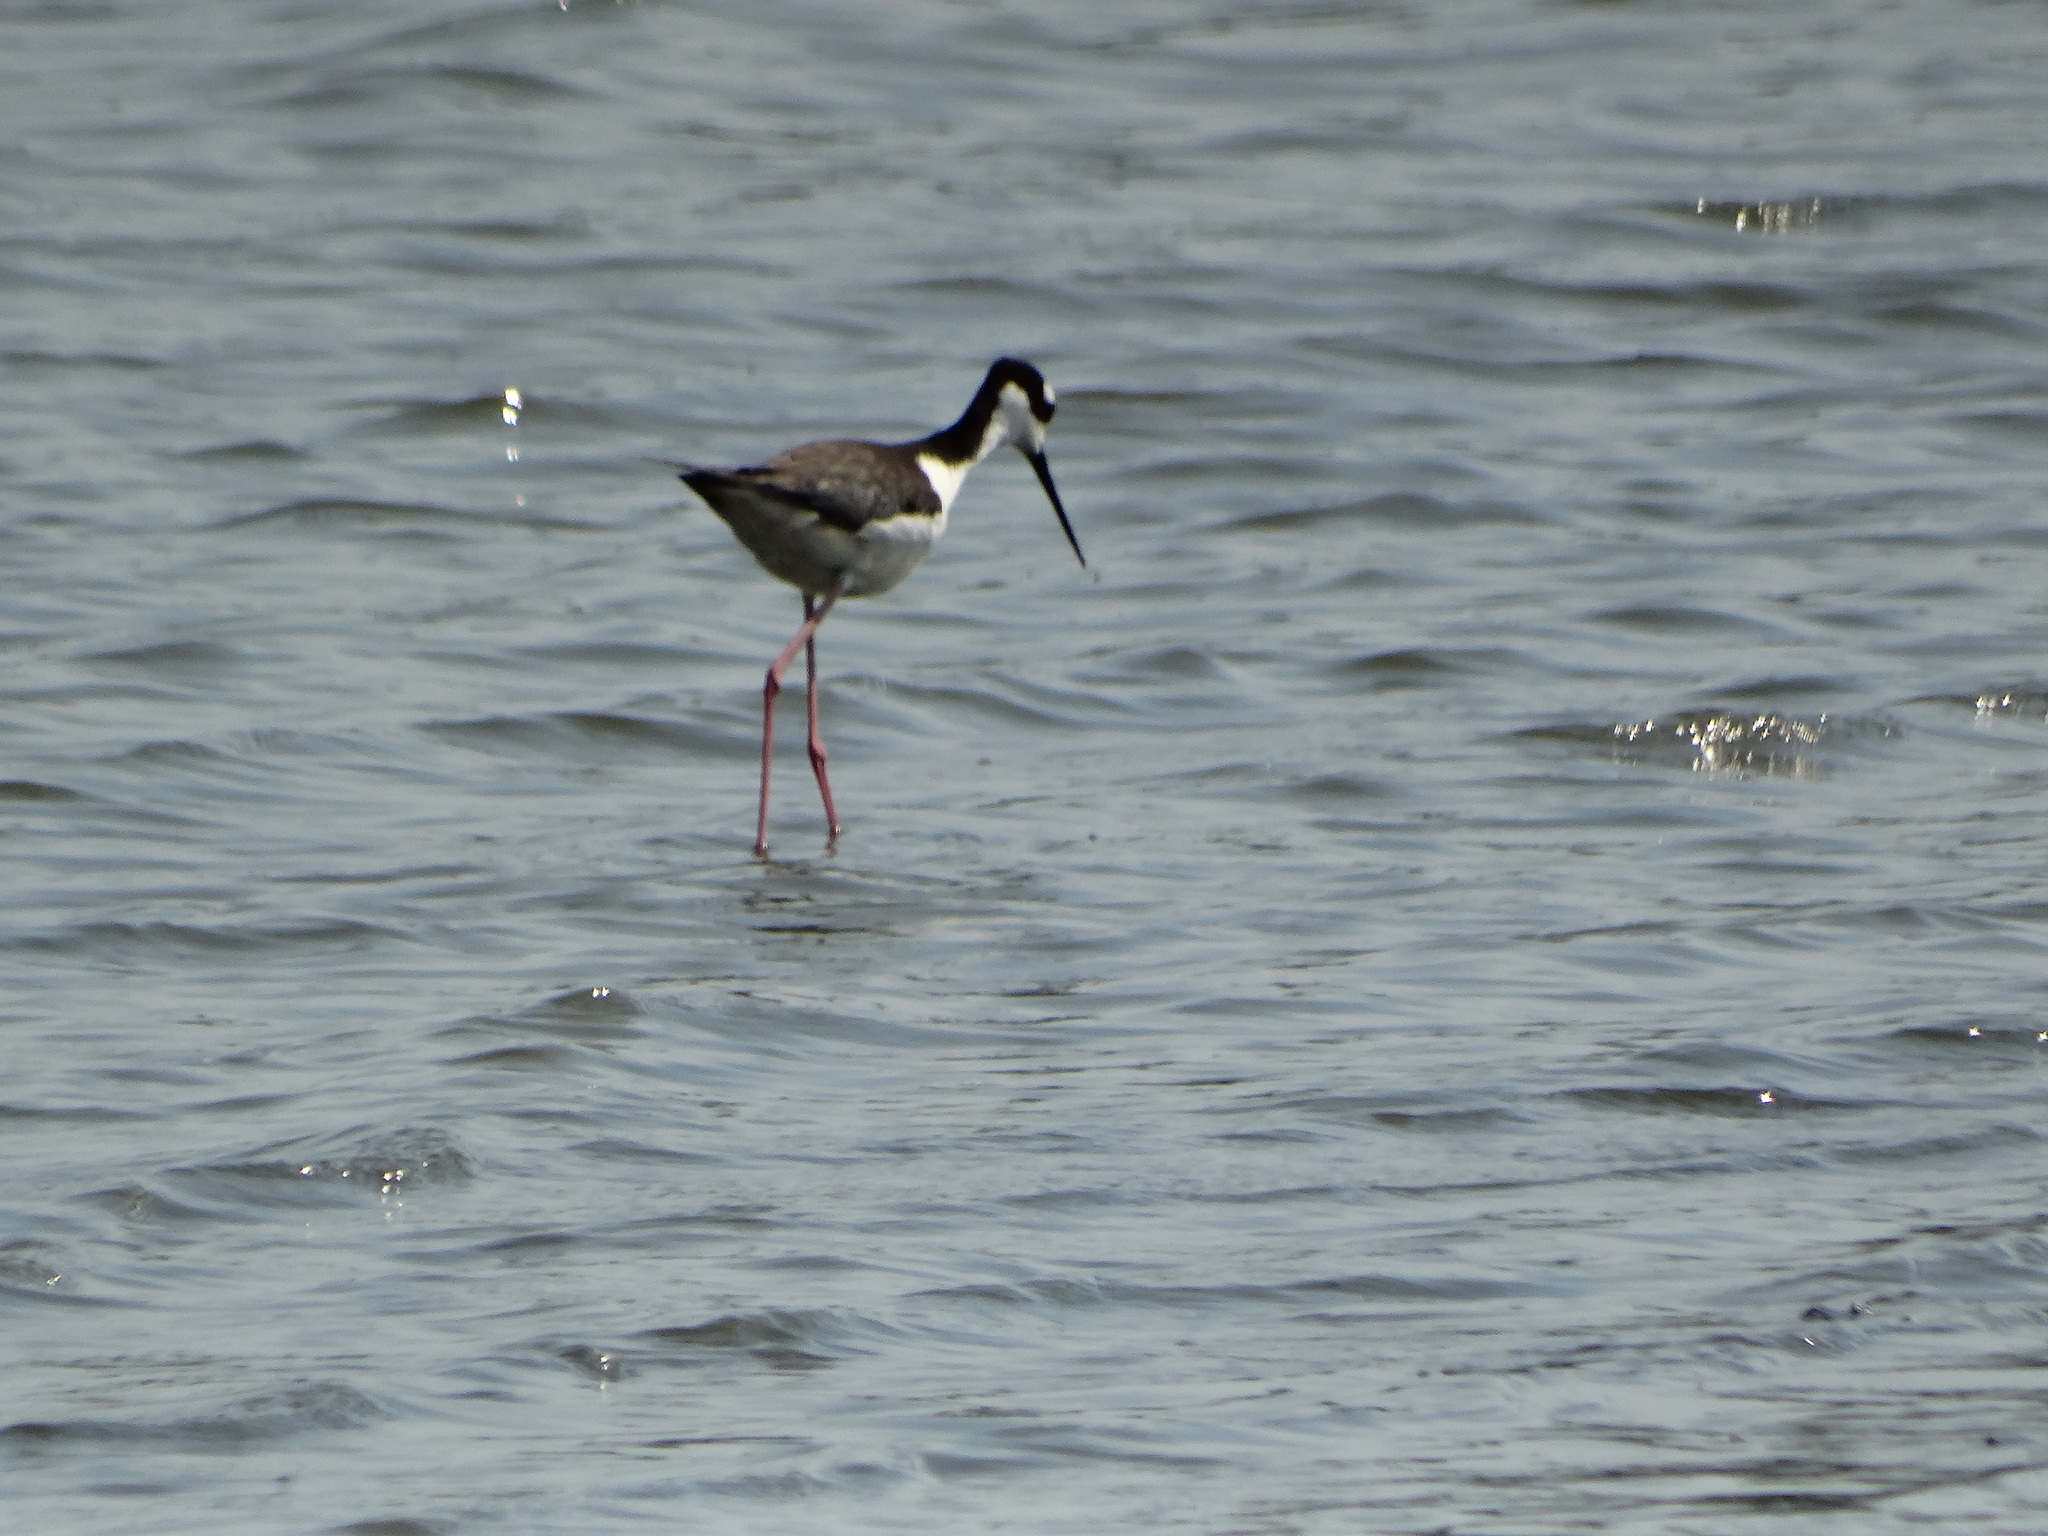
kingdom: Animalia
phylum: Chordata
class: Aves
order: Charadriiformes
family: Recurvirostridae
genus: Himantopus
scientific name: Himantopus mexicanus
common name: Black-necked stilt
